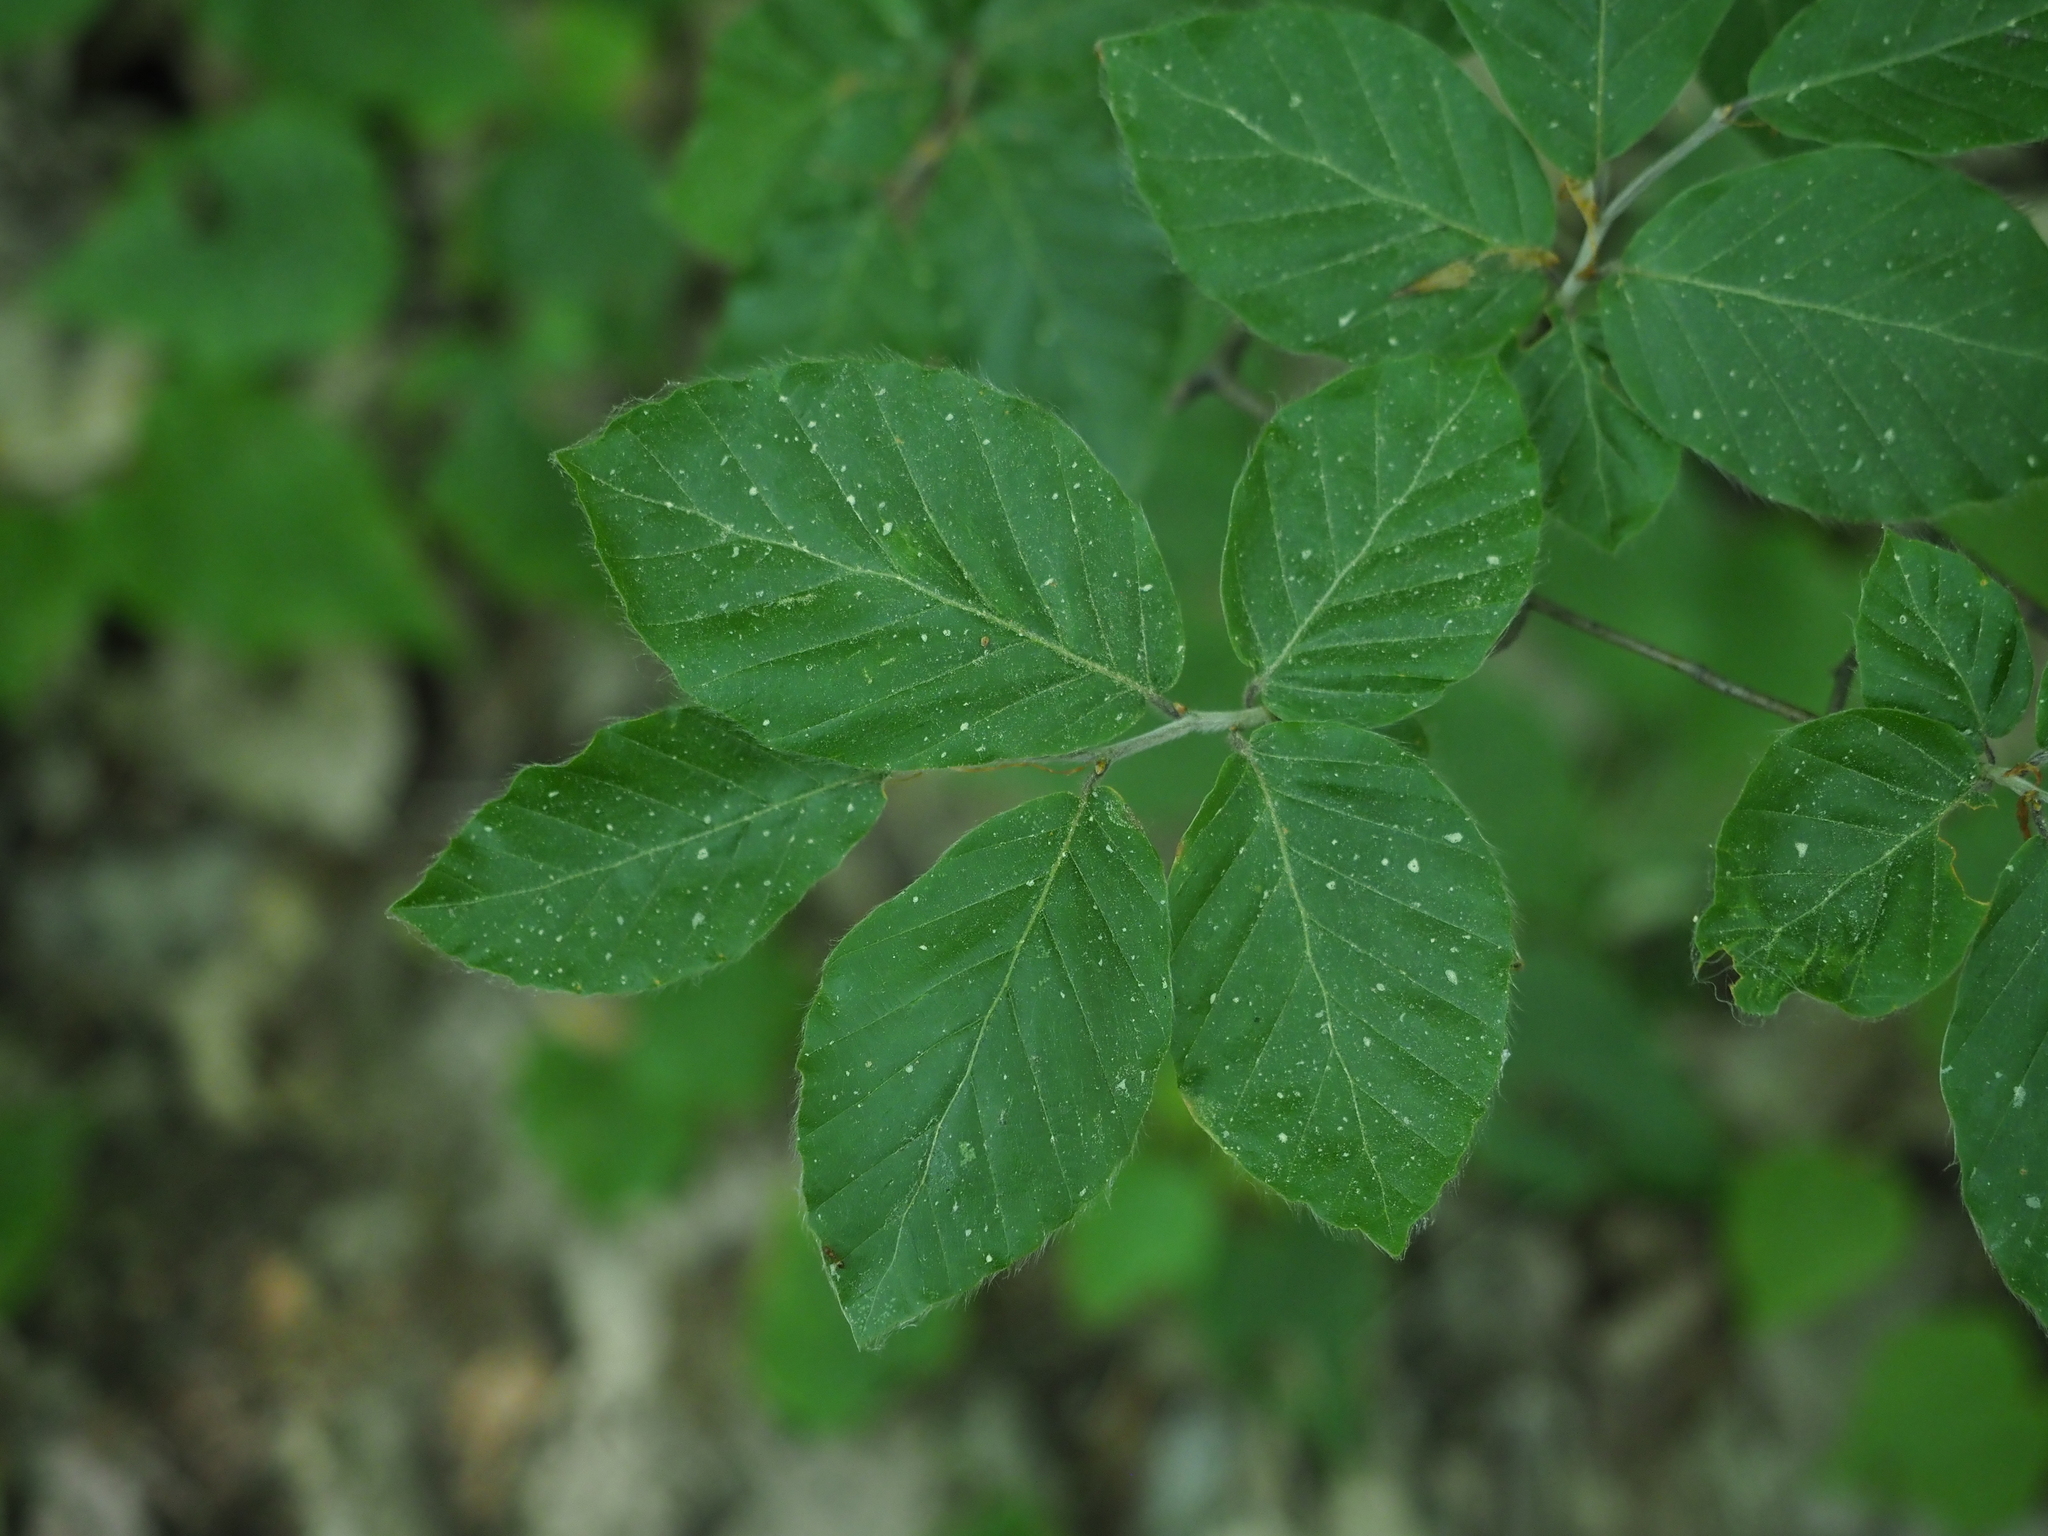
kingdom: Plantae
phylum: Tracheophyta
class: Magnoliopsida
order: Fagales
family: Fagaceae
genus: Fagus
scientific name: Fagus sylvatica
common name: Beech
